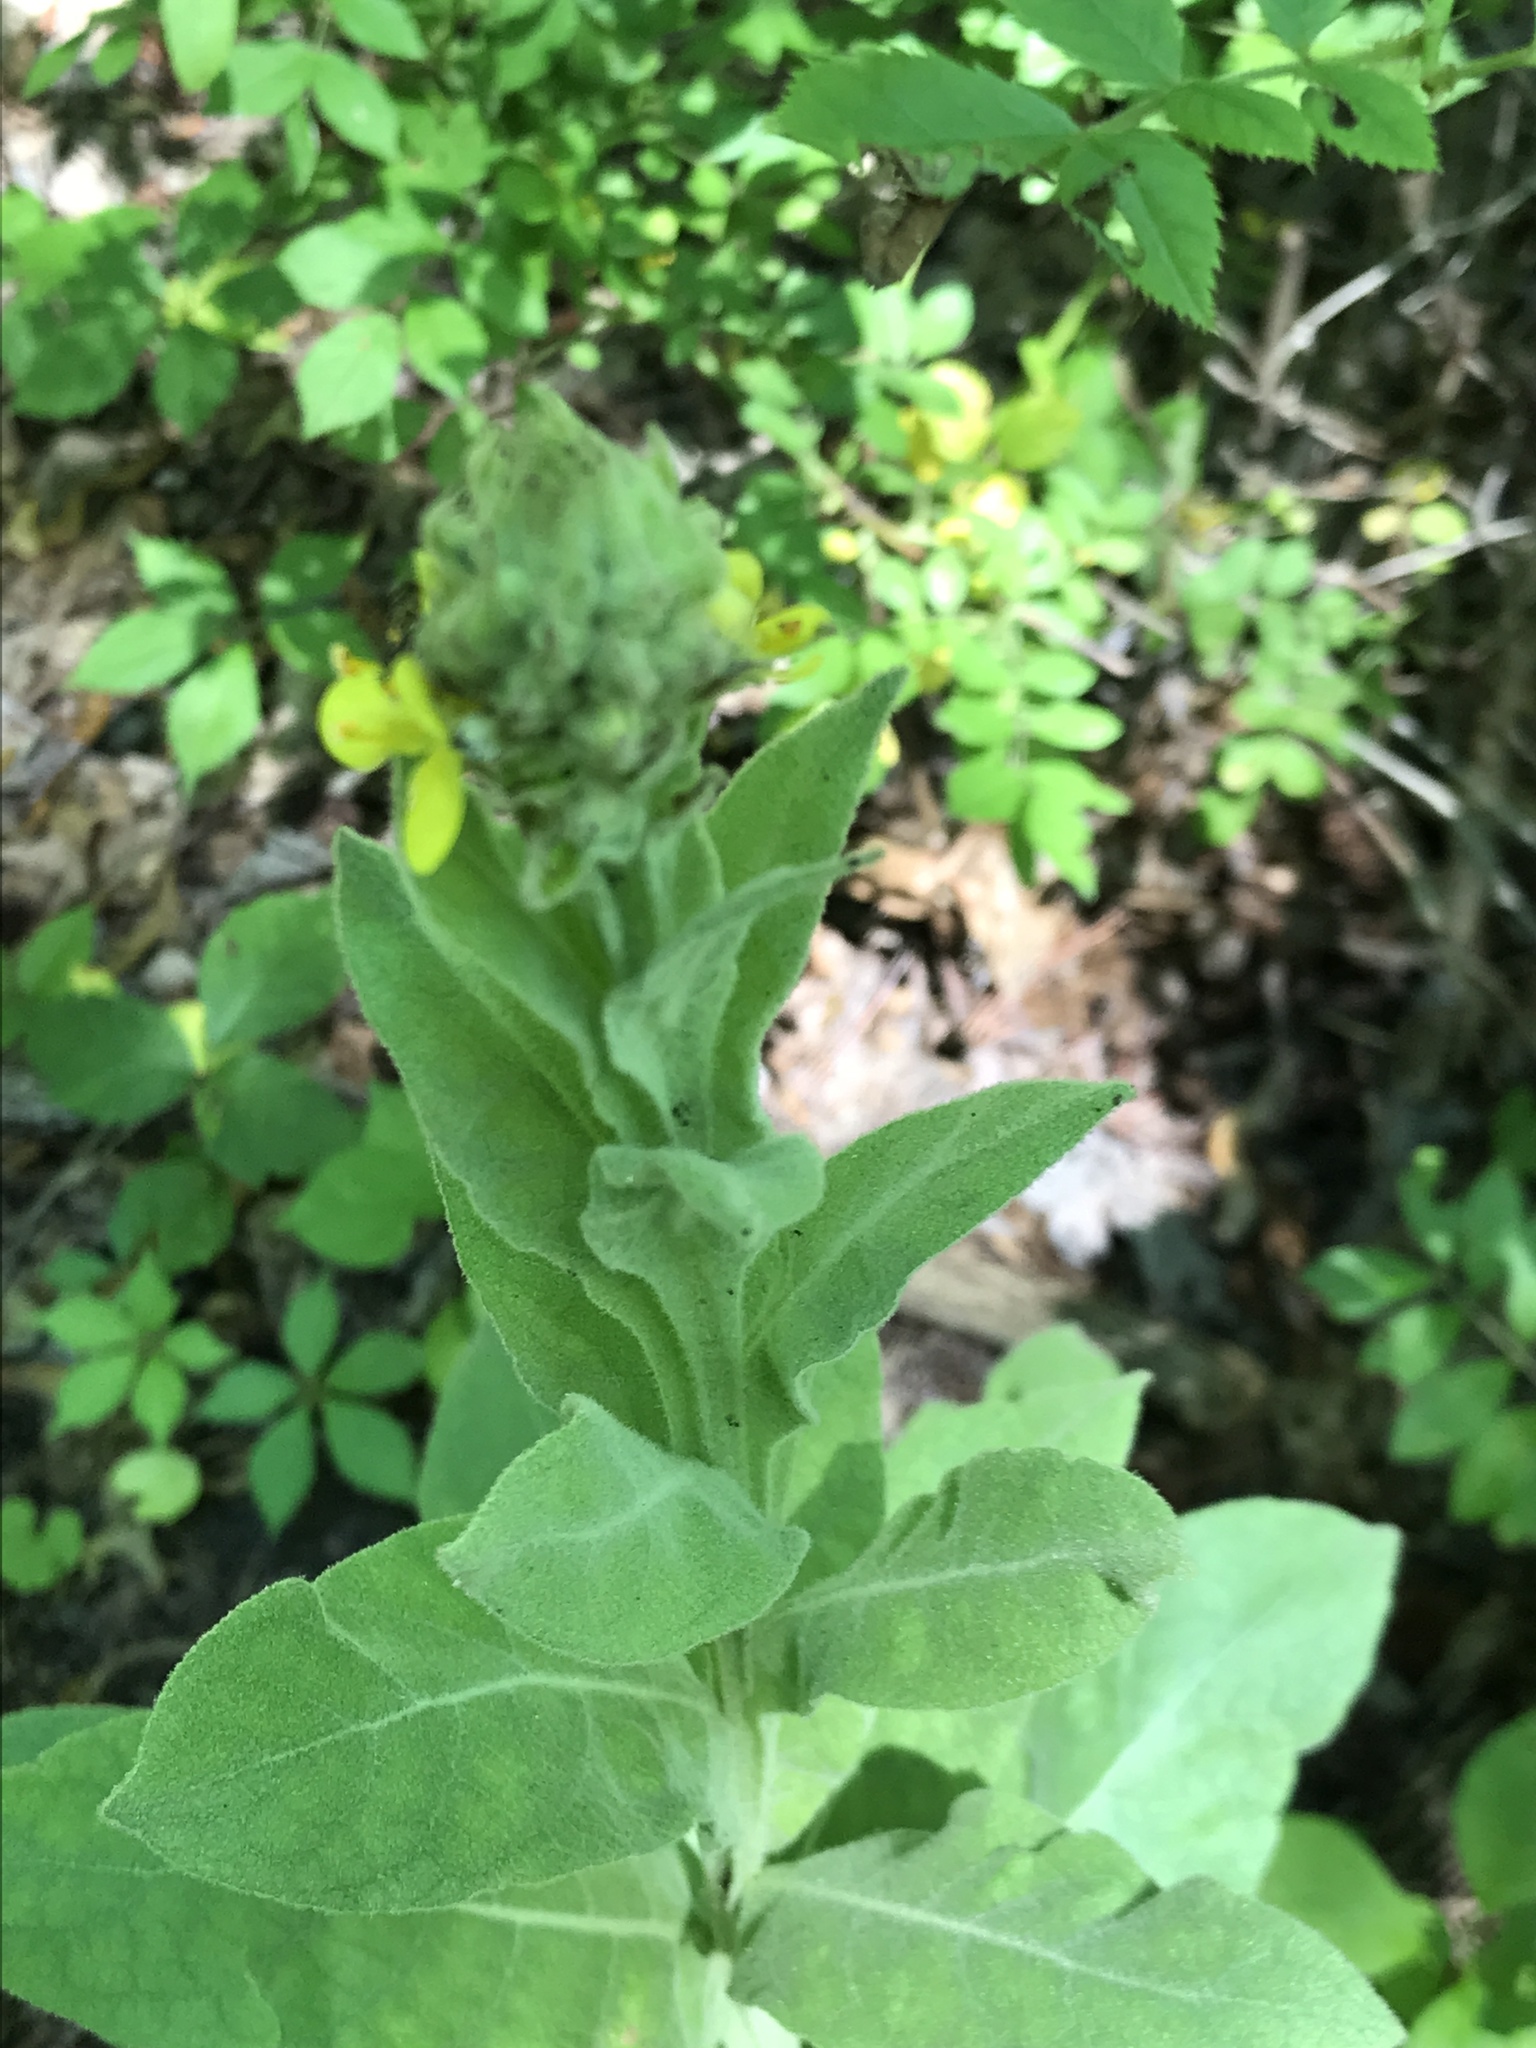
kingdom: Plantae
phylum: Tracheophyta
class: Magnoliopsida
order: Lamiales
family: Scrophulariaceae
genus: Verbascum
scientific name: Verbascum thapsus
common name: Common mullein
